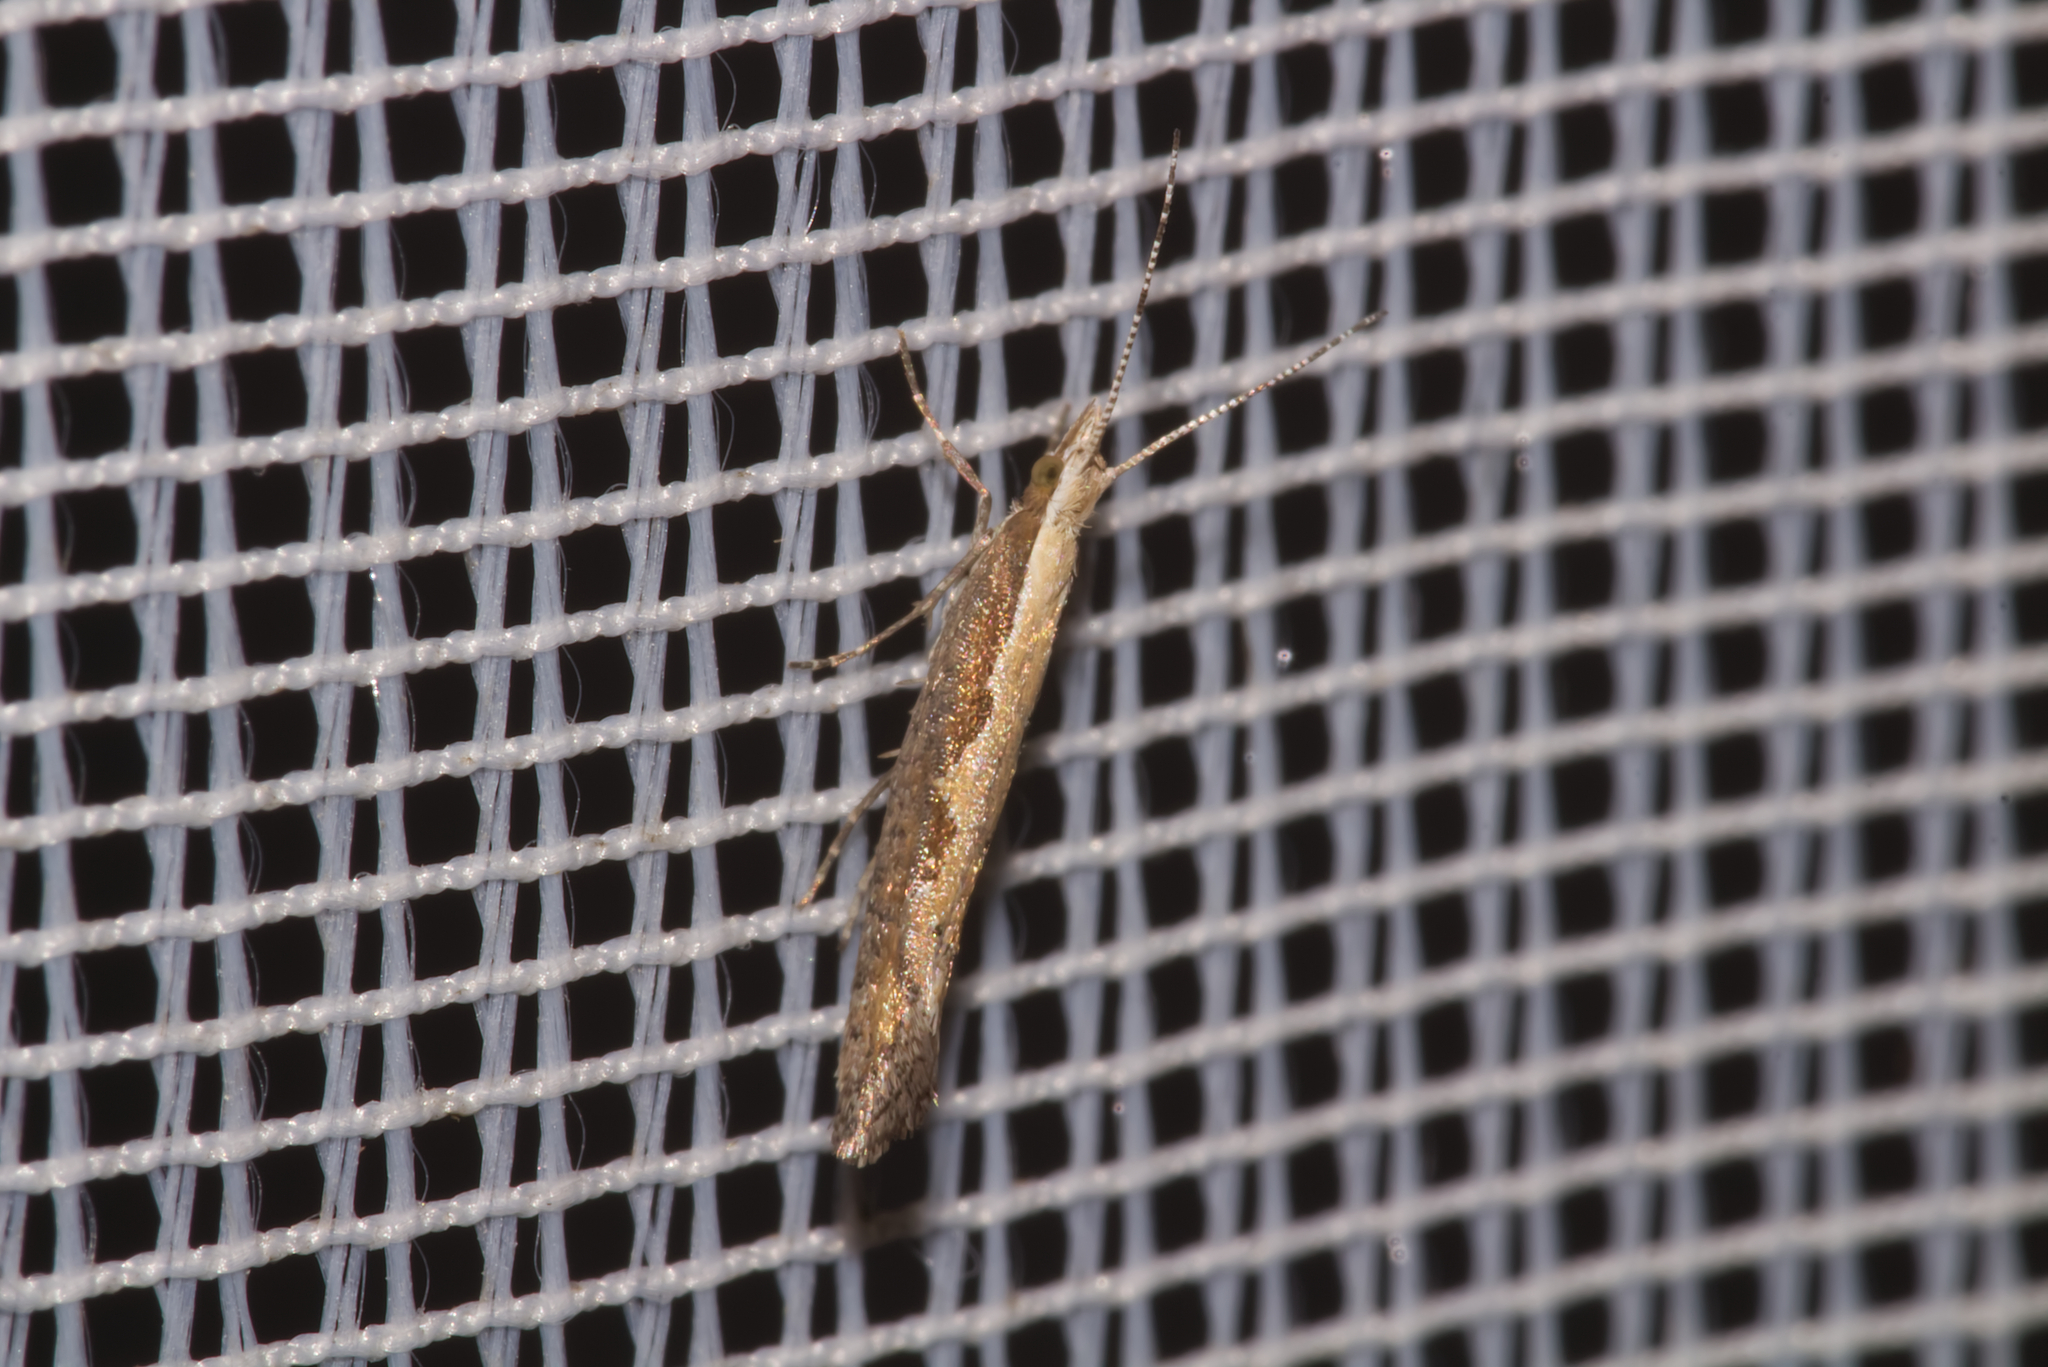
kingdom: Animalia
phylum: Arthropoda
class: Insecta
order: Lepidoptera
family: Plutellidae
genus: Plutella
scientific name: Plutella xylostella
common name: Diamond-back moth
